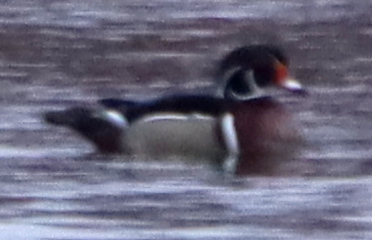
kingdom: Animalia
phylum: Chordata
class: Aves
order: Anseriformes
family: Anatidae
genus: Aix
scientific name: Aix sponsa
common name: Wood duck
